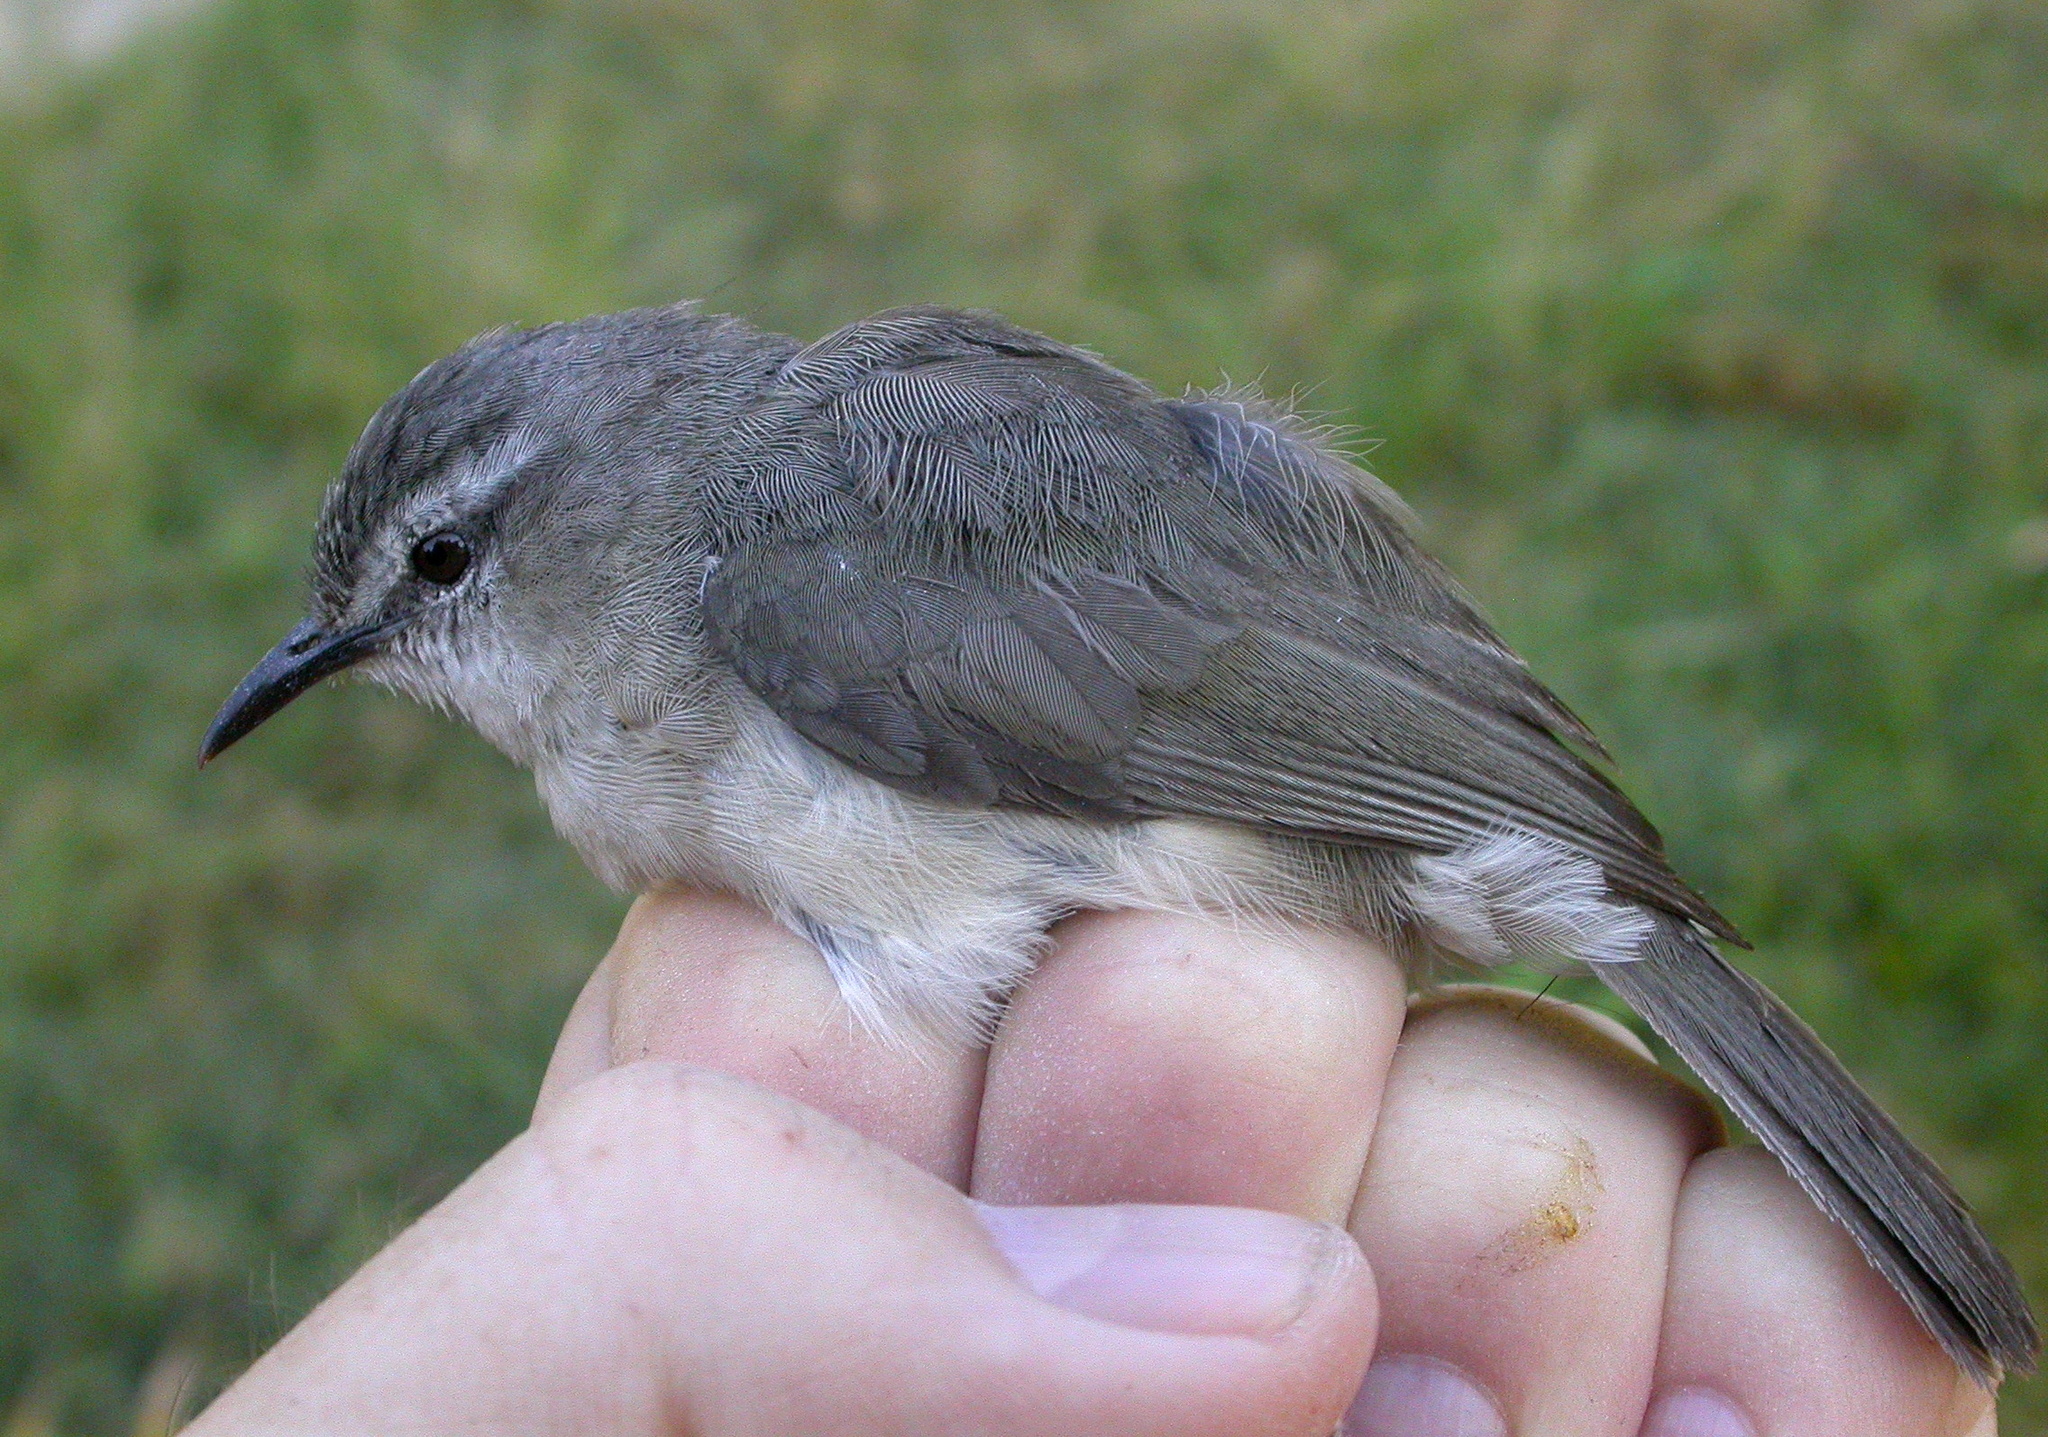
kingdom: Animalia
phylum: Chordata
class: Aves
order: Passeriformes
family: Bernieridae
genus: Randia
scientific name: Randia pseudozosterops
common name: Rand's warbler
